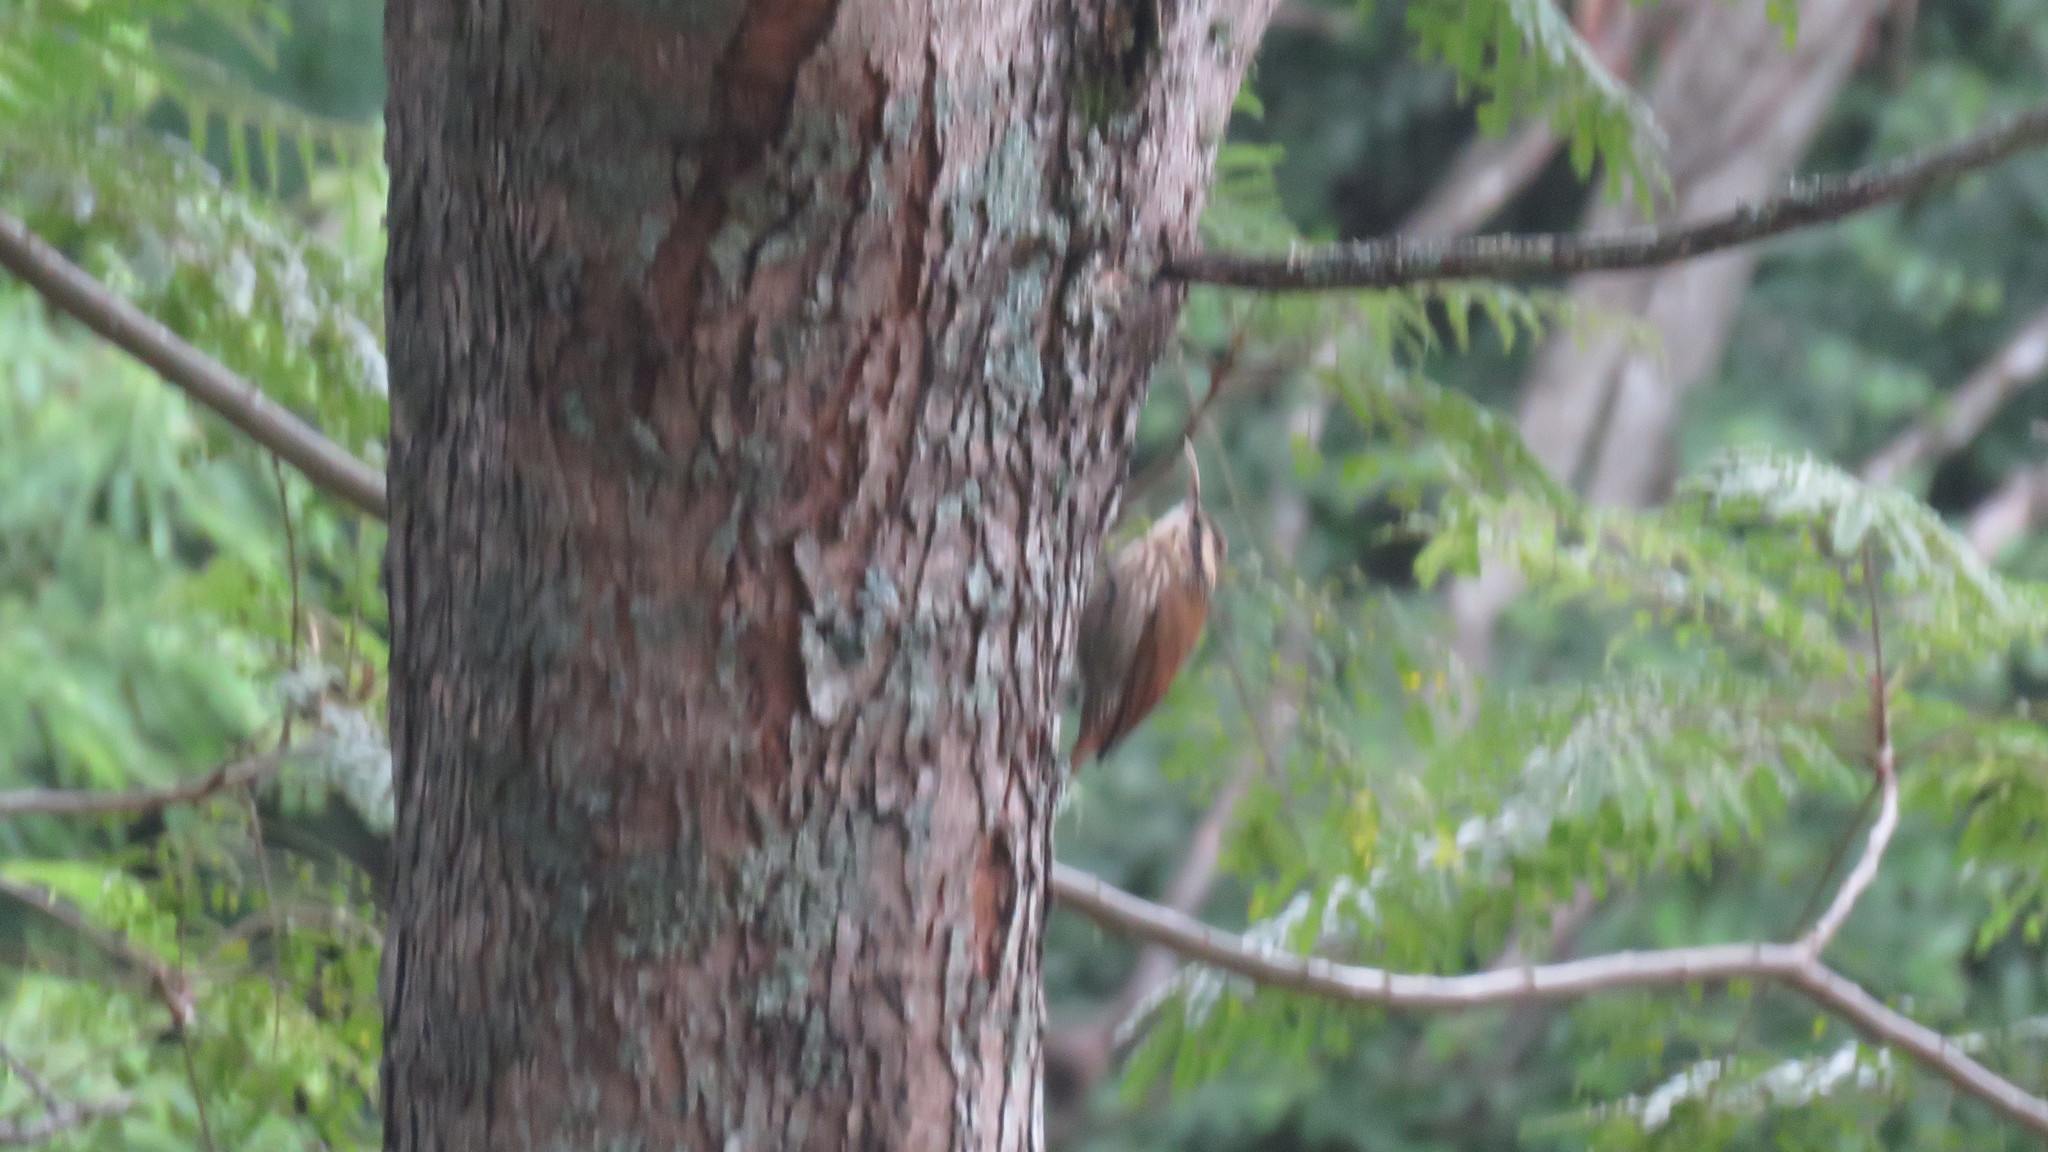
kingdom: Animalia
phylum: Chordata
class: Aves
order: Passeriformes
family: Furnariidae
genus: Lepidocolaptes
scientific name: Lepidocolaptes angustirostris
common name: Narrow-billed woodcreeper
